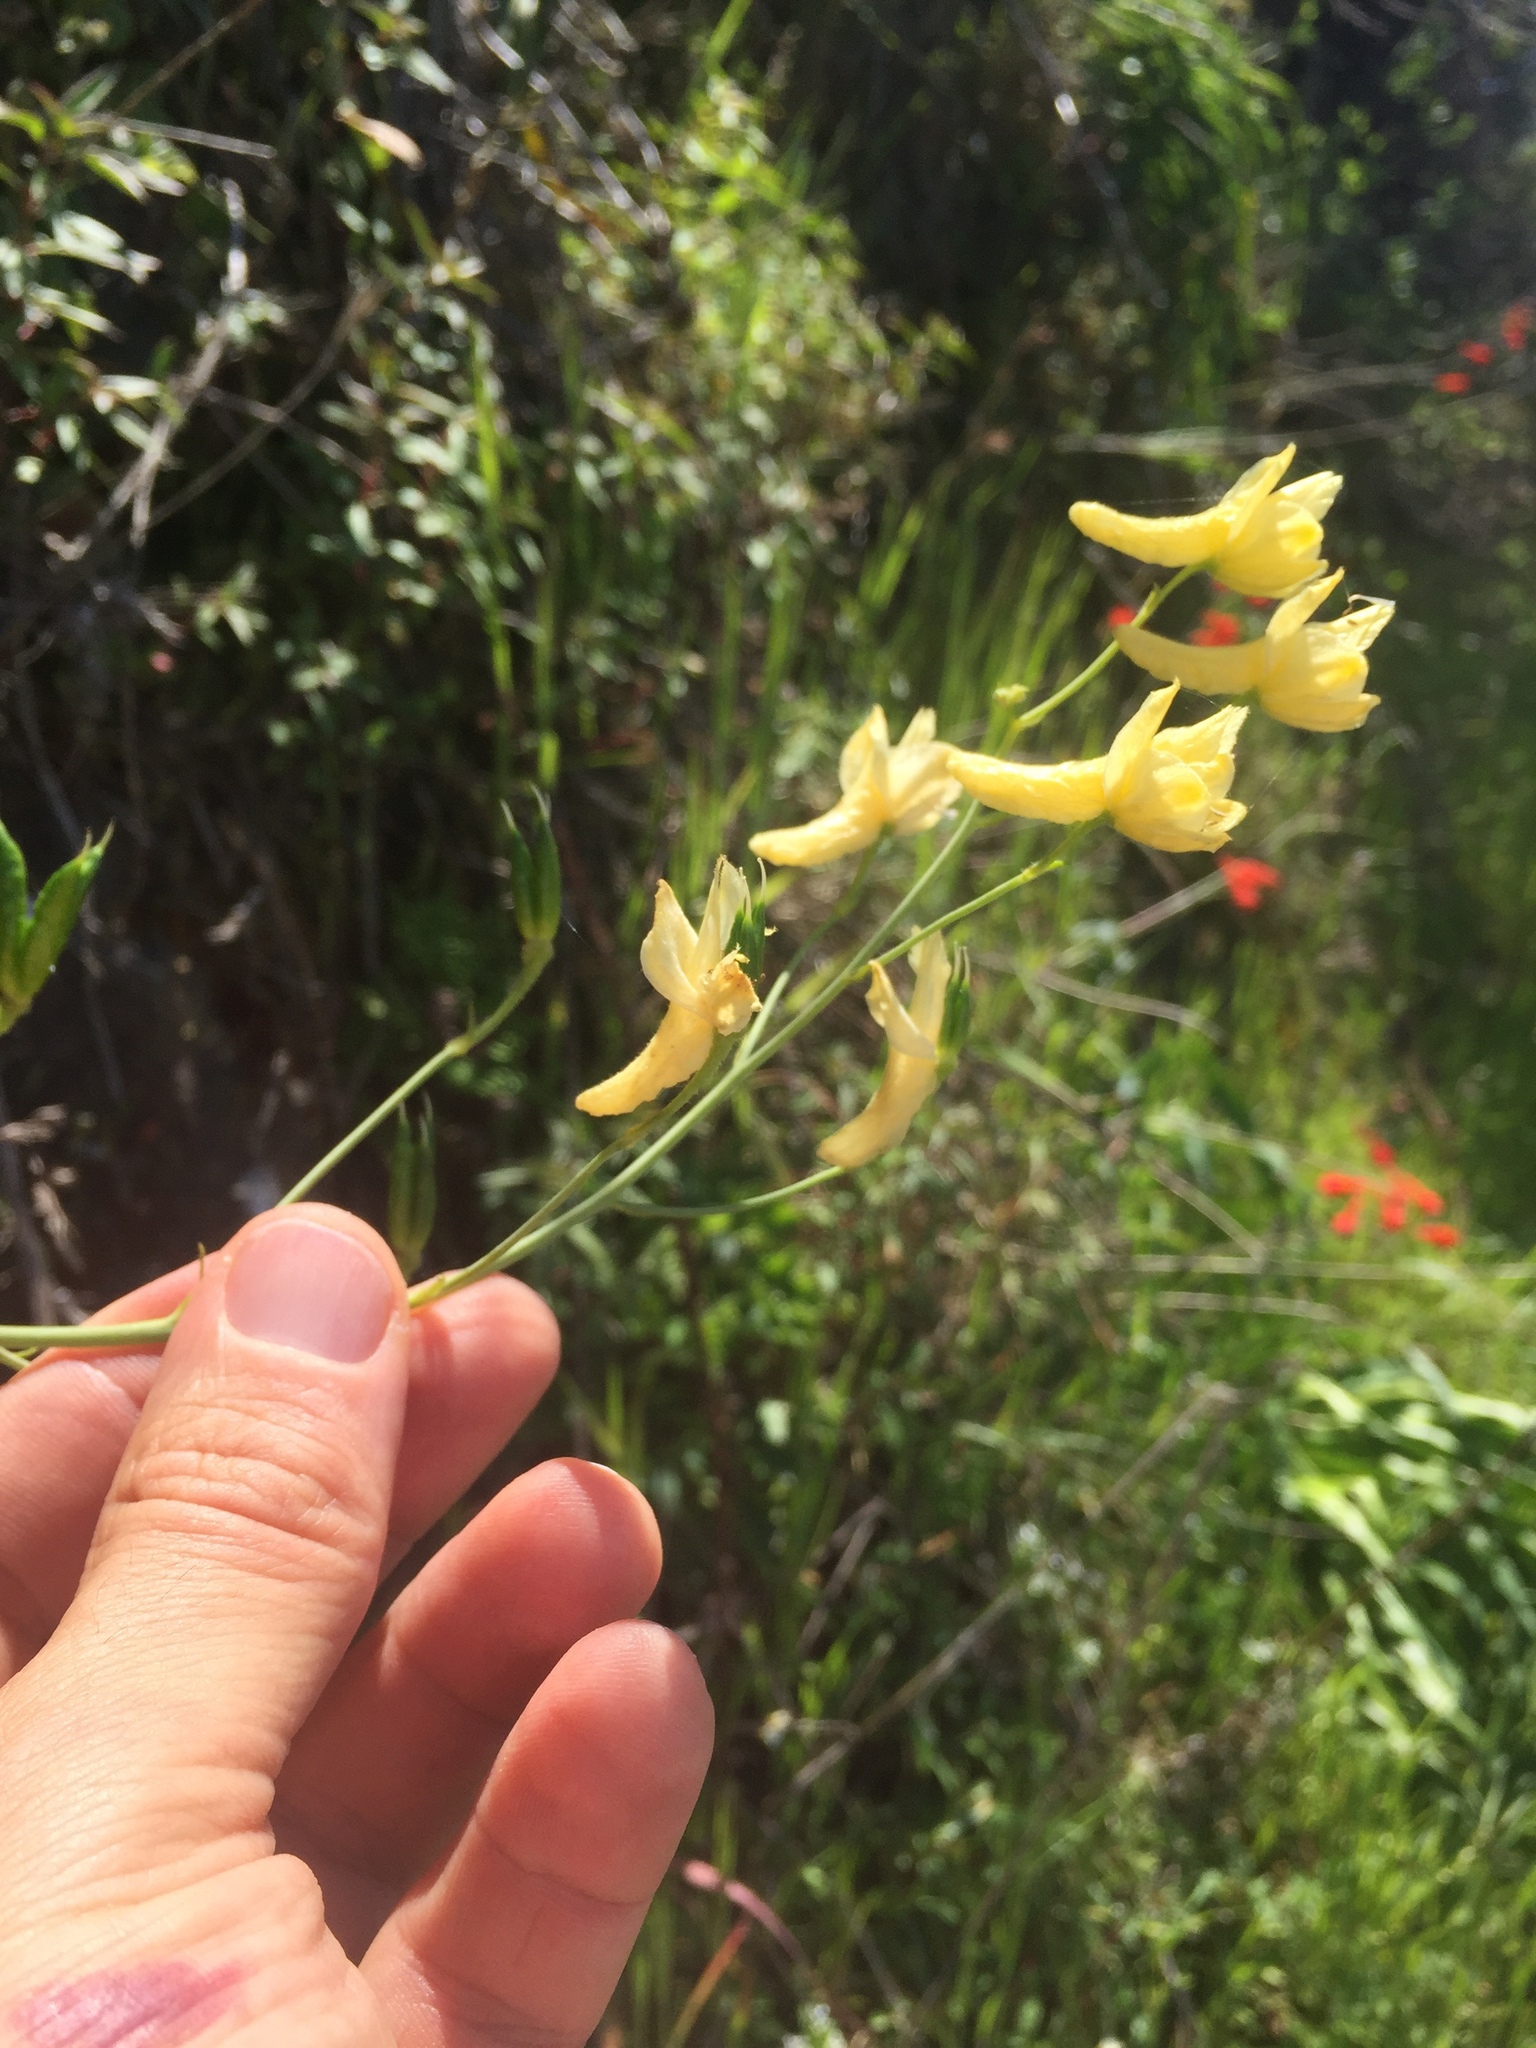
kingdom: Plantae
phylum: Tracheophyta
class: Magnoliopsida
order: Ranunculales
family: Ranunculaceae
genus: Delphinium
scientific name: Delphinium luteum
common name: Yellow larkspur
